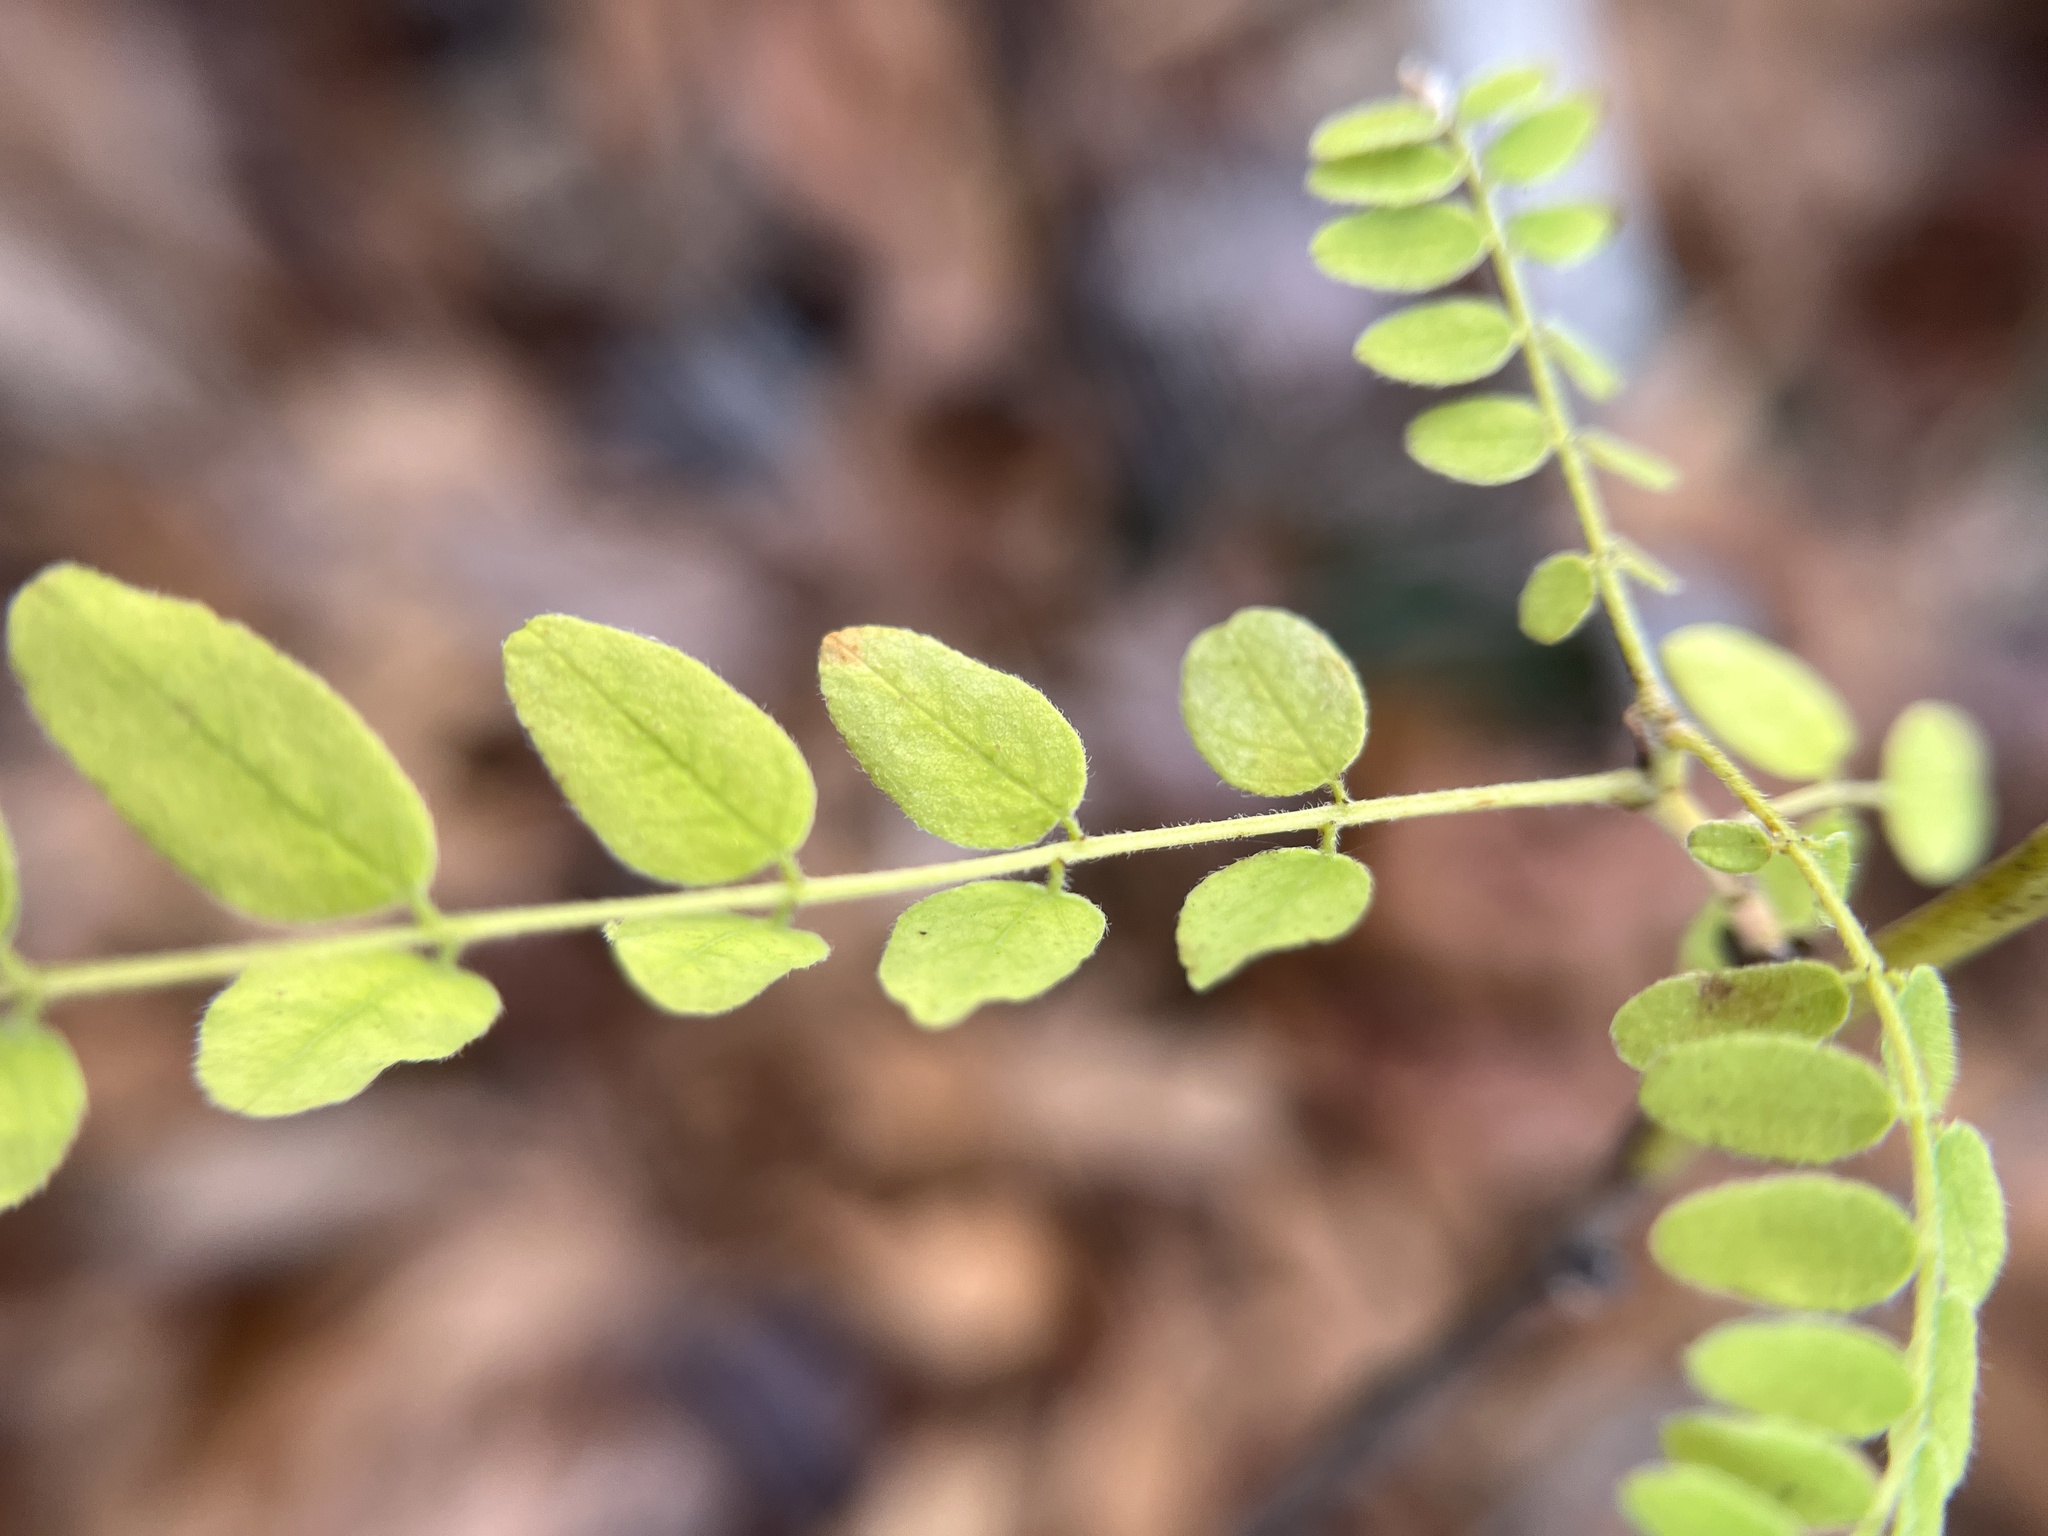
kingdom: Plantae
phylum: Tracheophyta
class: Magnoliopsida
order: Fabales
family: Fabaceae
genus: Amorpha
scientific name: Amorpha schwerinii
